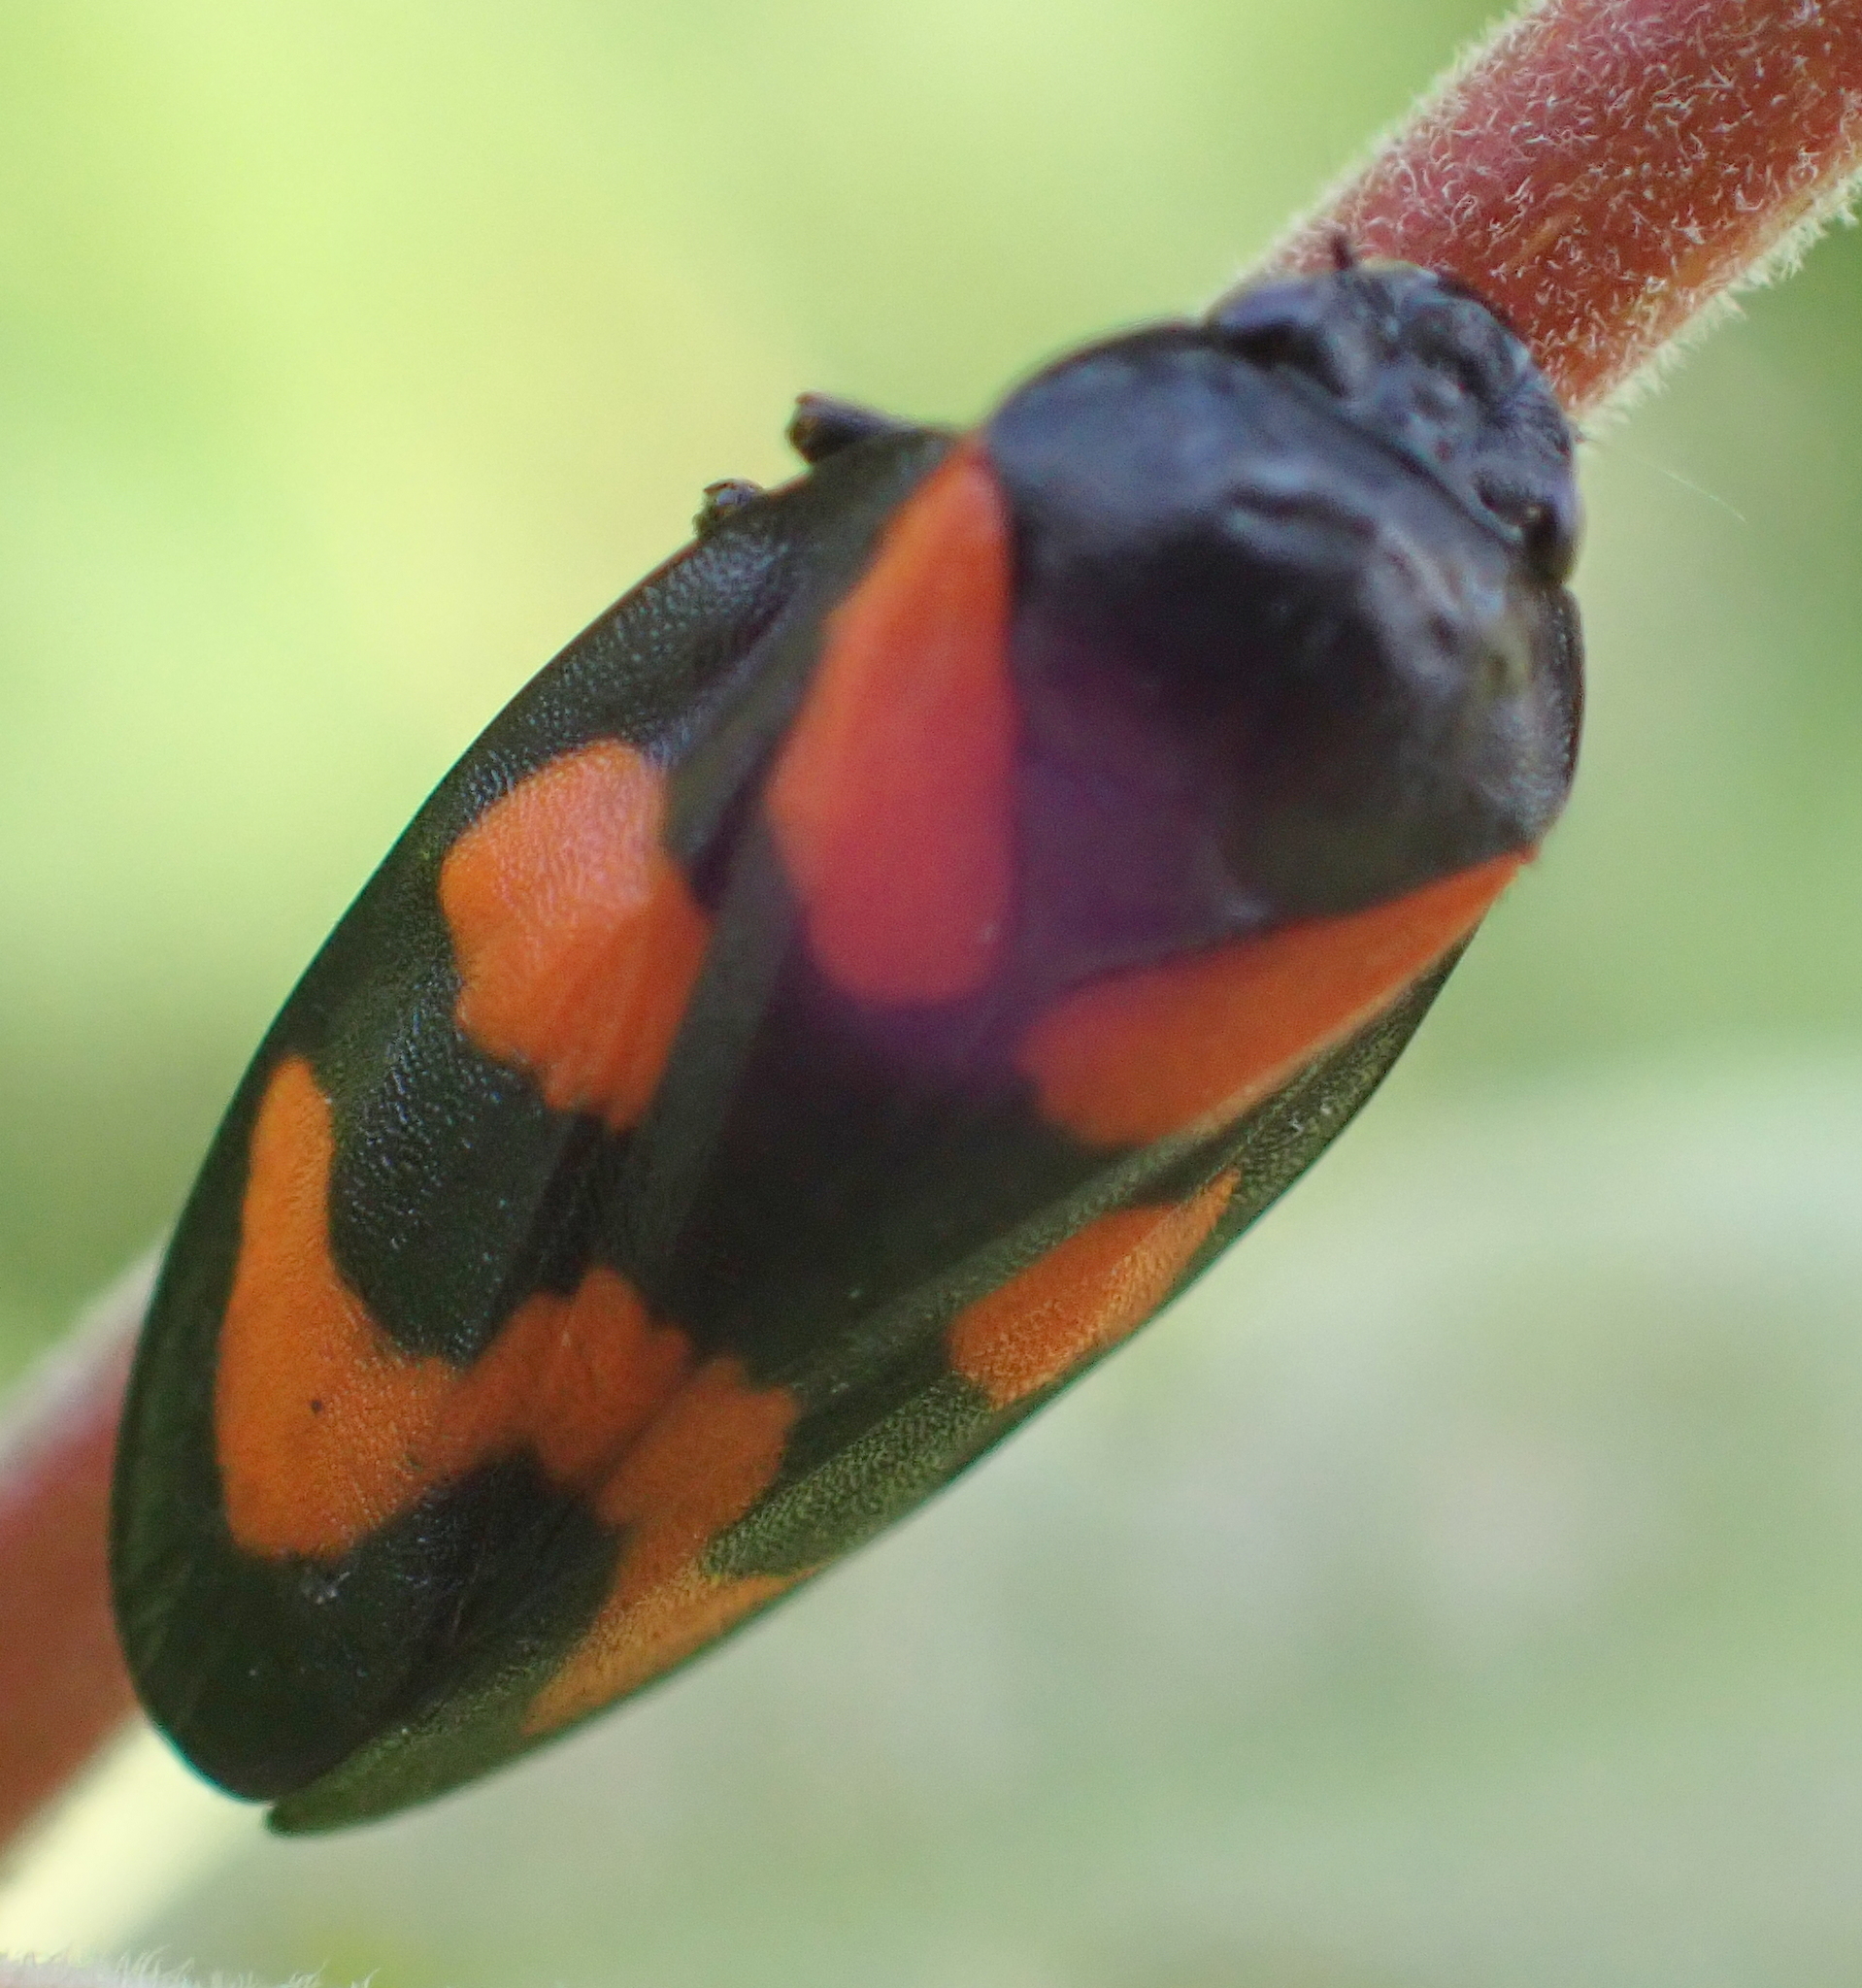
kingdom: Animalia
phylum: Arthropoda
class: Insecta
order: Hemiptera
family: Cercopidae
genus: Cercopis
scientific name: Cercopis vulnerata
